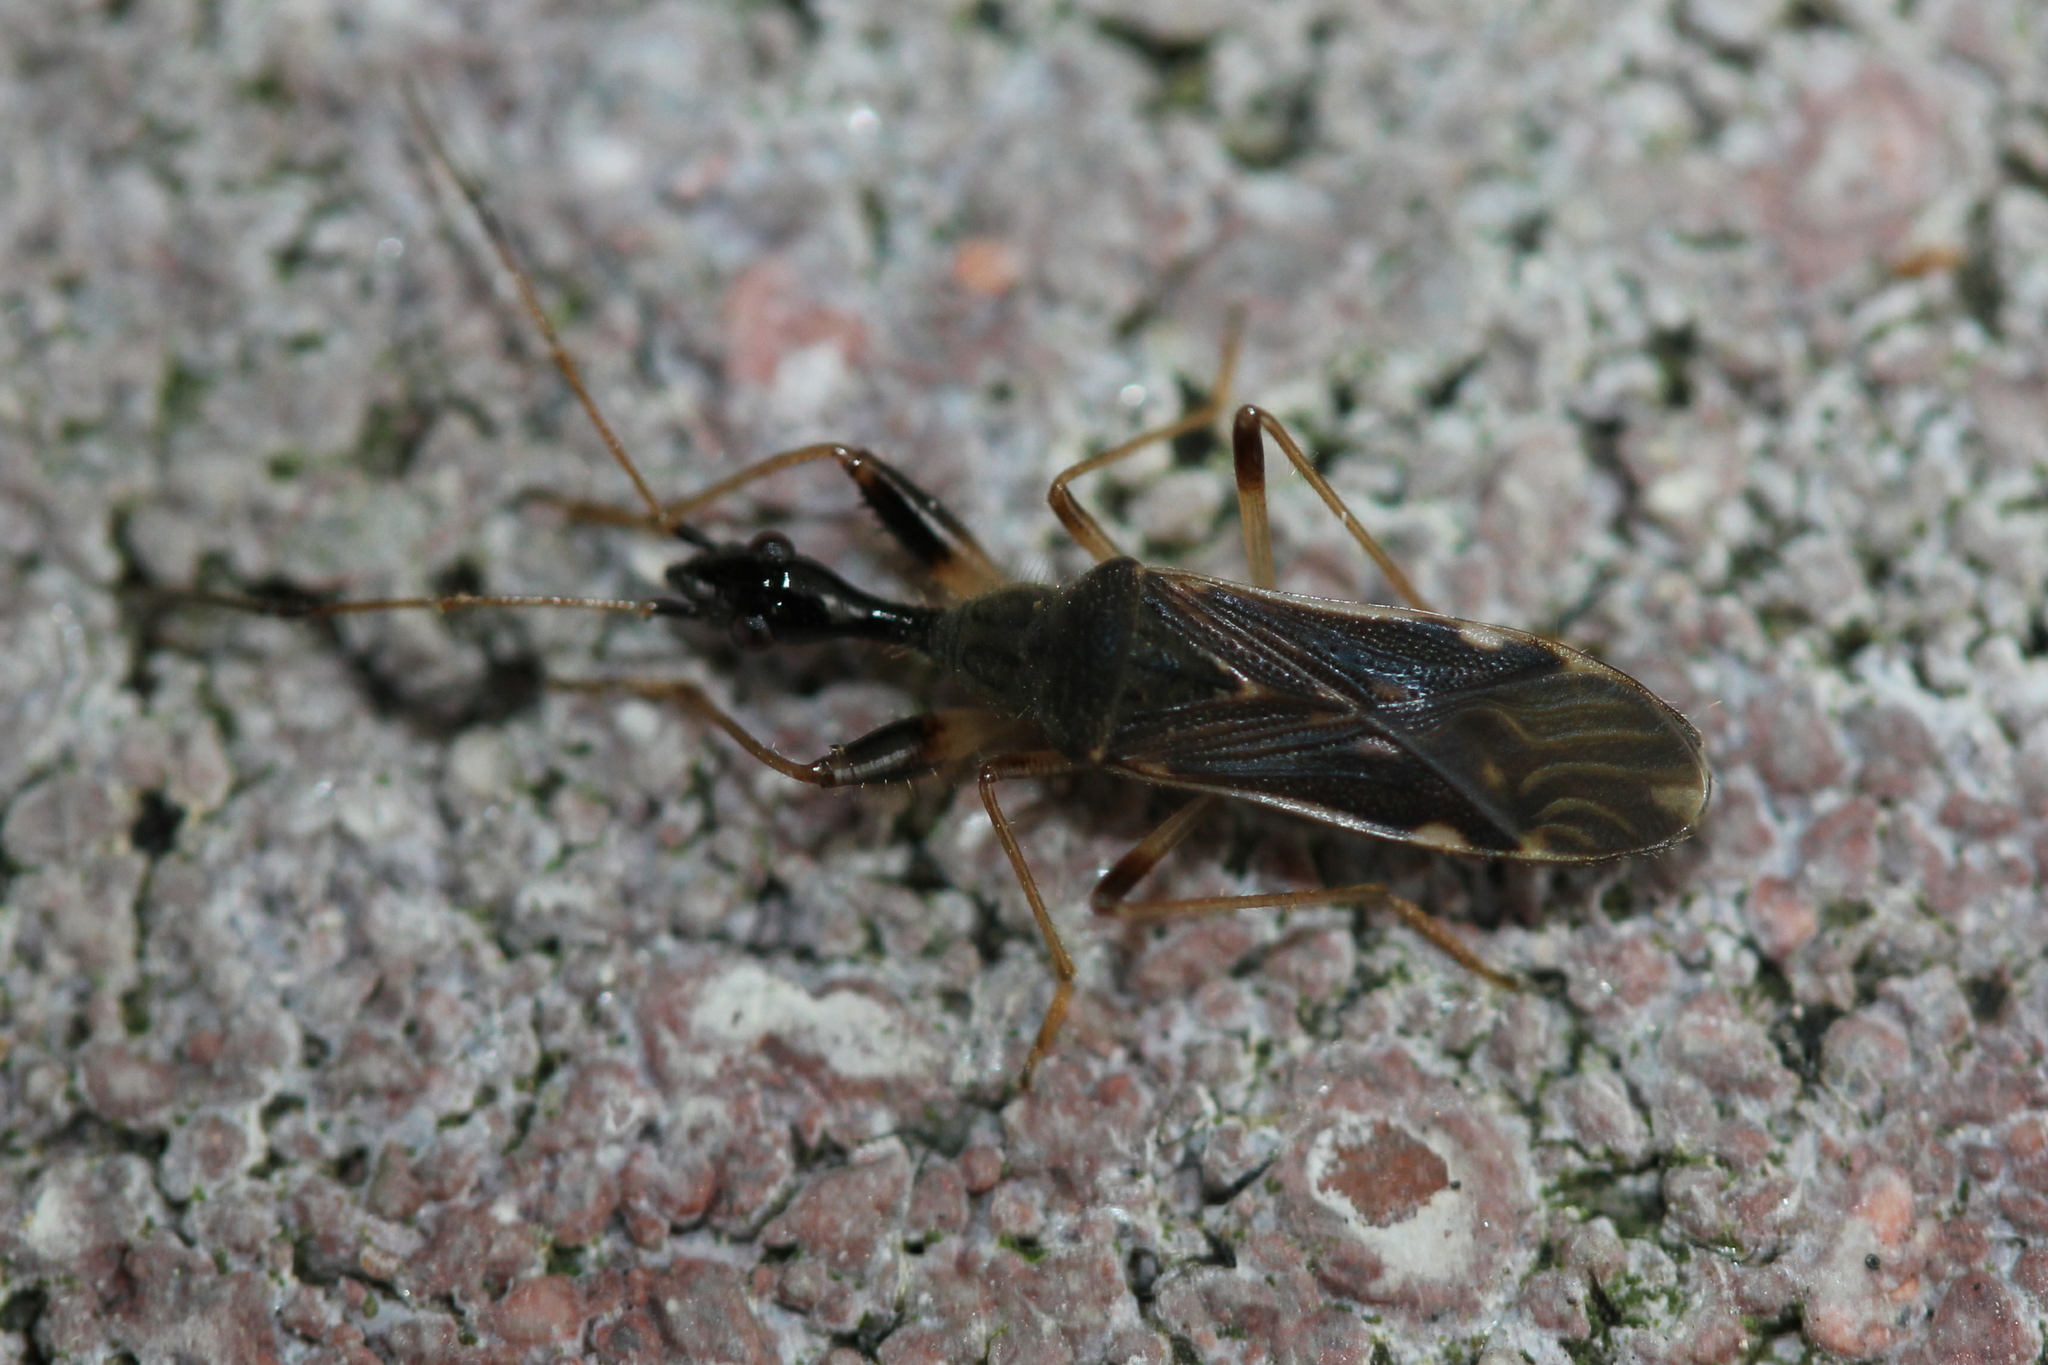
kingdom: Animalia
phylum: Arthropoda
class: Insecta
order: Hemiptera
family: Rhyparochromidae
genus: Myodocha
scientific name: Myodocha serripes
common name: Long-necked seed bug
